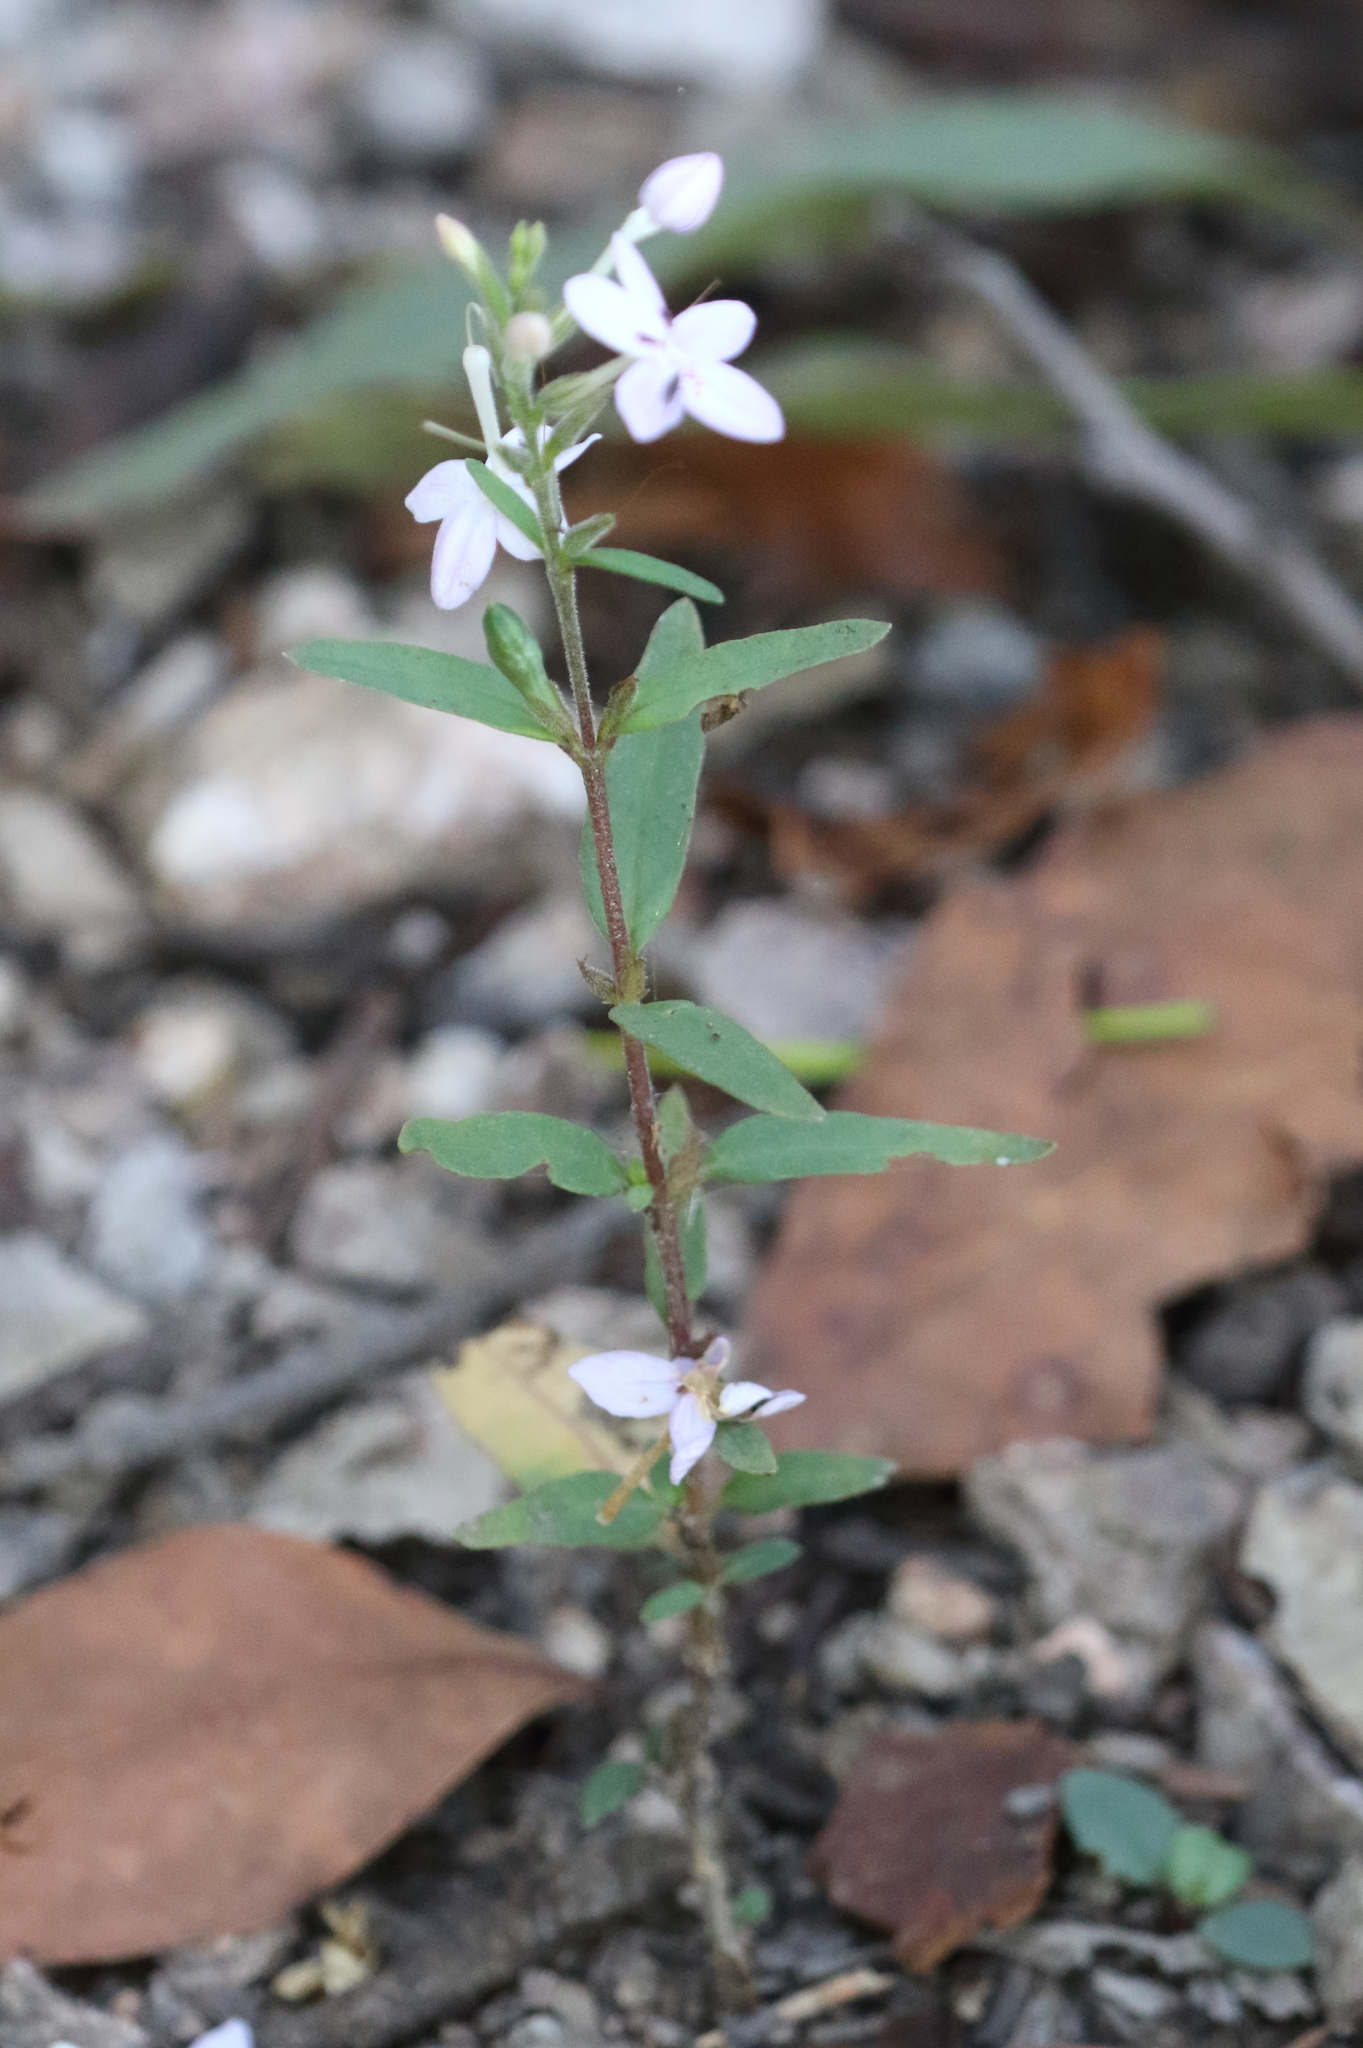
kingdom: Plantae
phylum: Tracheophyta
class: Magnoliopsida
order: Lamiales
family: Acanthaceae
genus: Pseuderanthemum
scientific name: Pseuderanthemum variabile
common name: Night and afternoon
